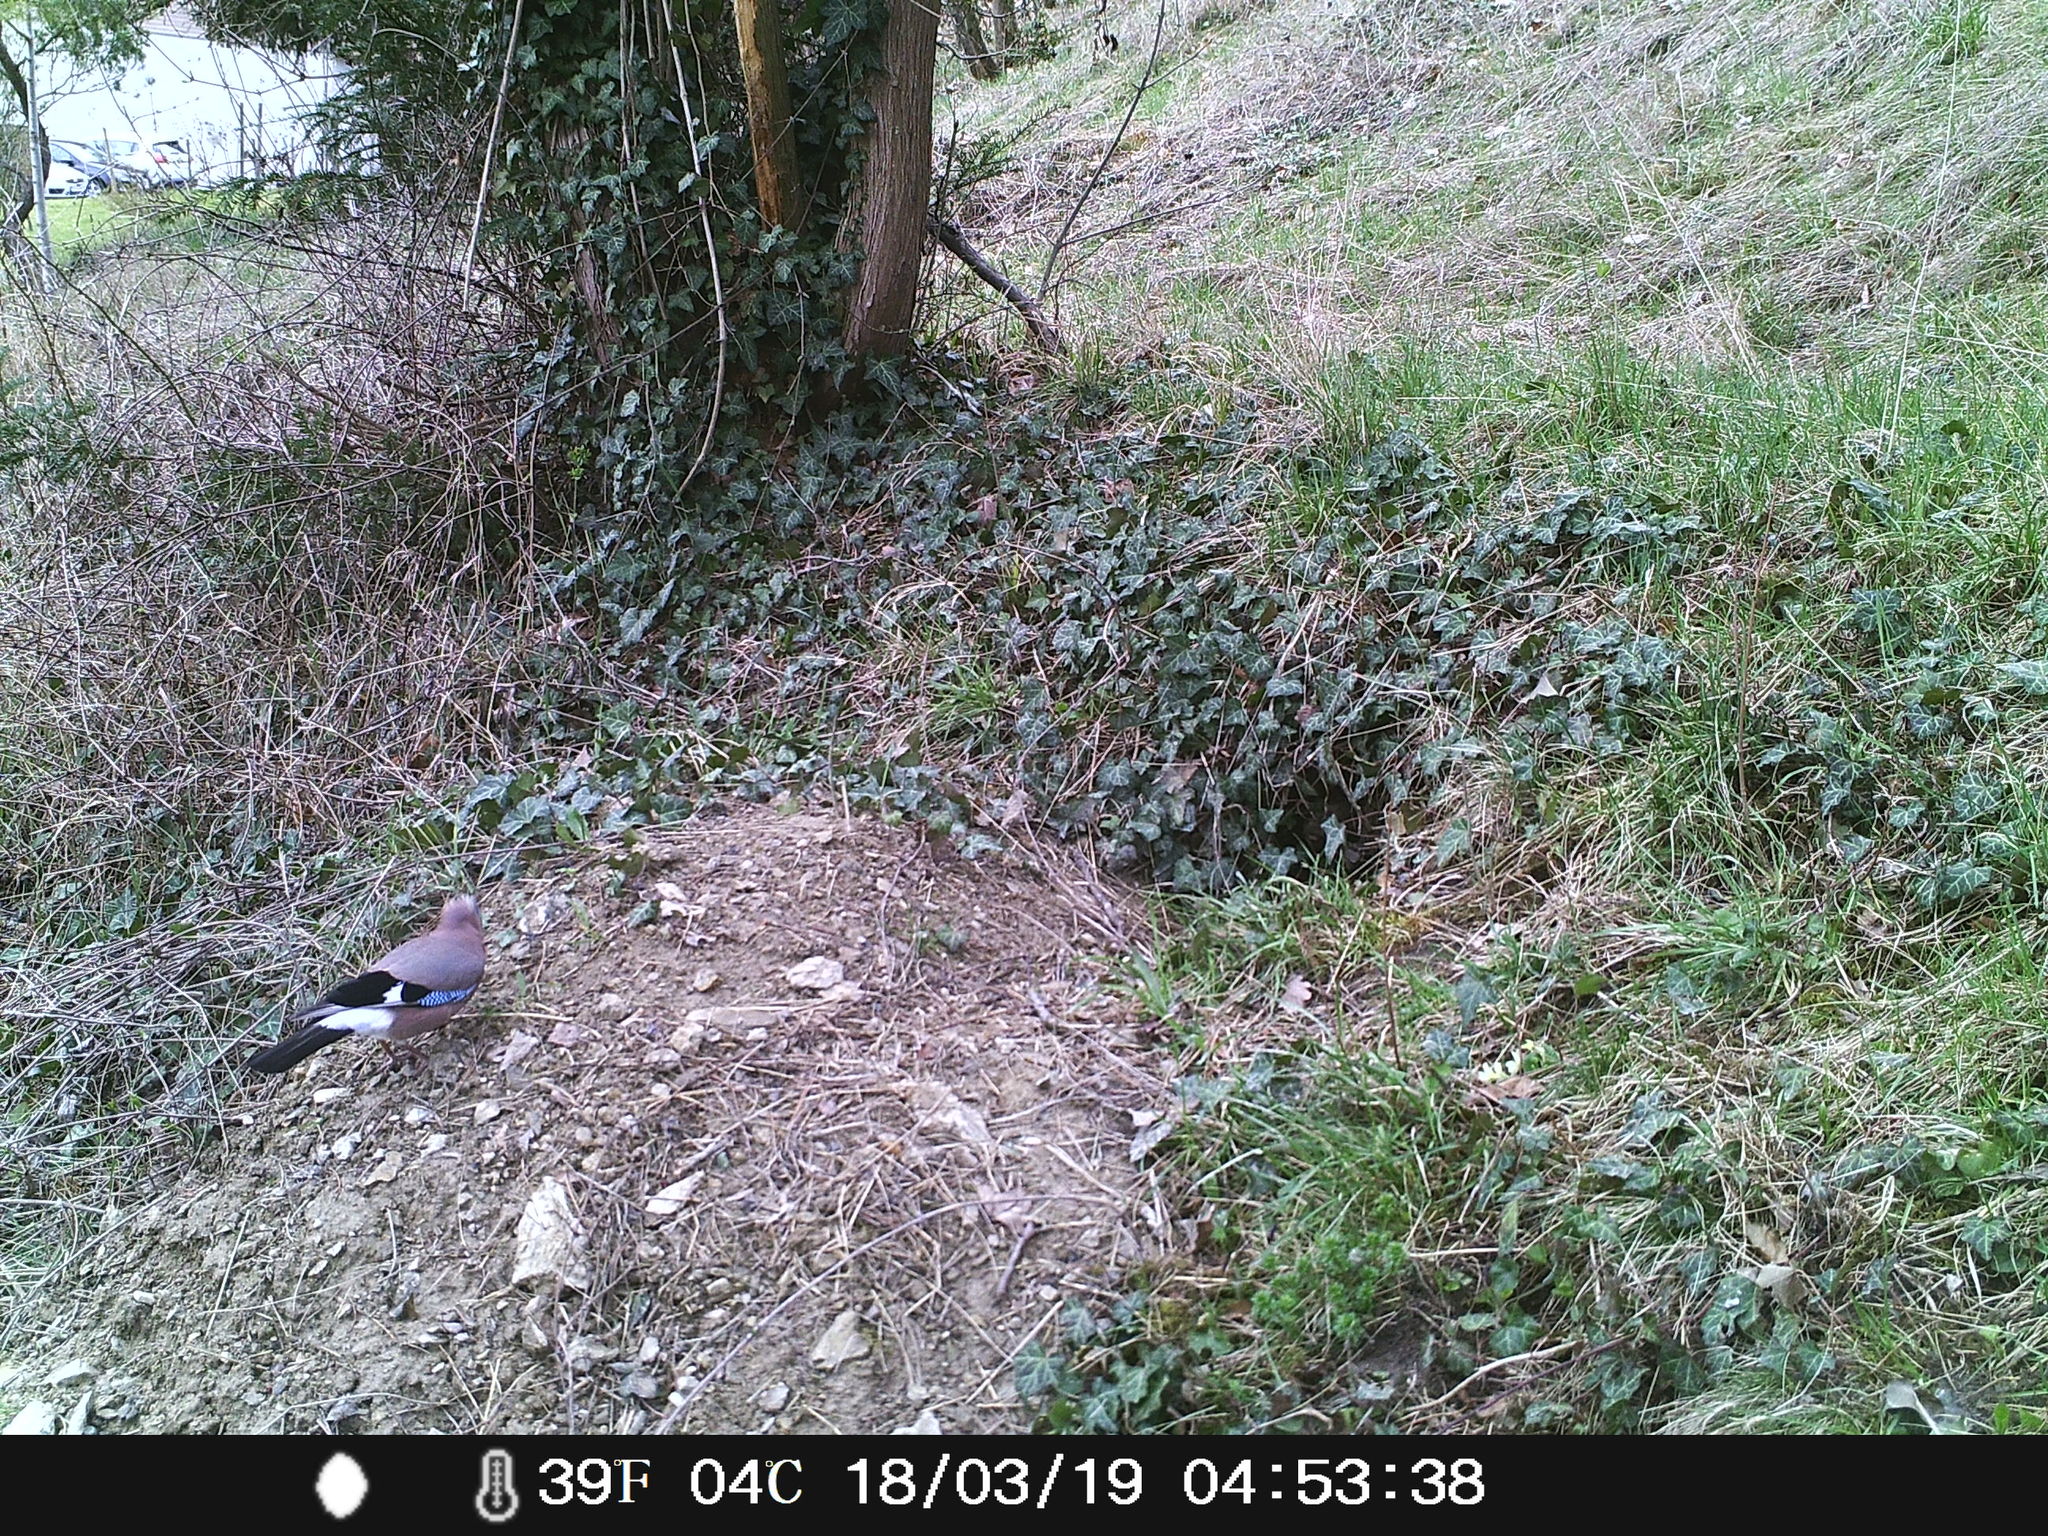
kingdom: Animalia
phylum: Chordata
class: Aves
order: Passeriformes
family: Corvidae
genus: Garrulus
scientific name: Garrulus glandarius
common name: Eurasian jay
